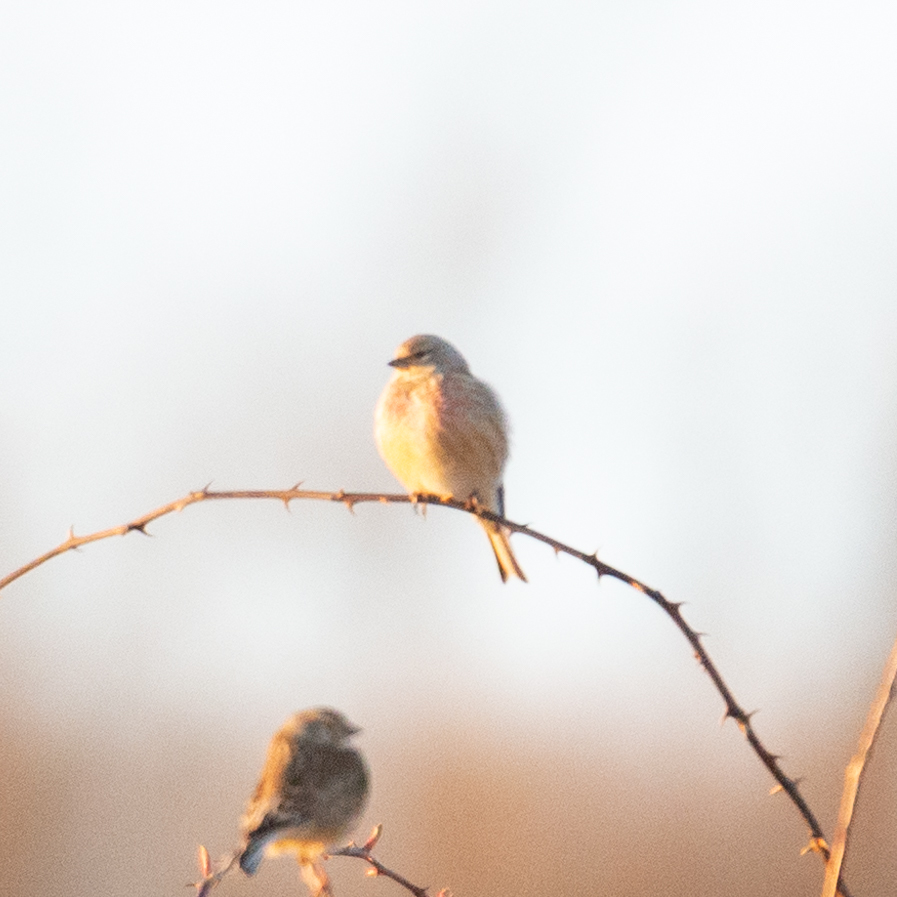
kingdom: Animalia
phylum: Chordata
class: Aves
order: Passeriformes
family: Fringillidae
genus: Linaria
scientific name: Linaria cannabina
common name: Common linnet
